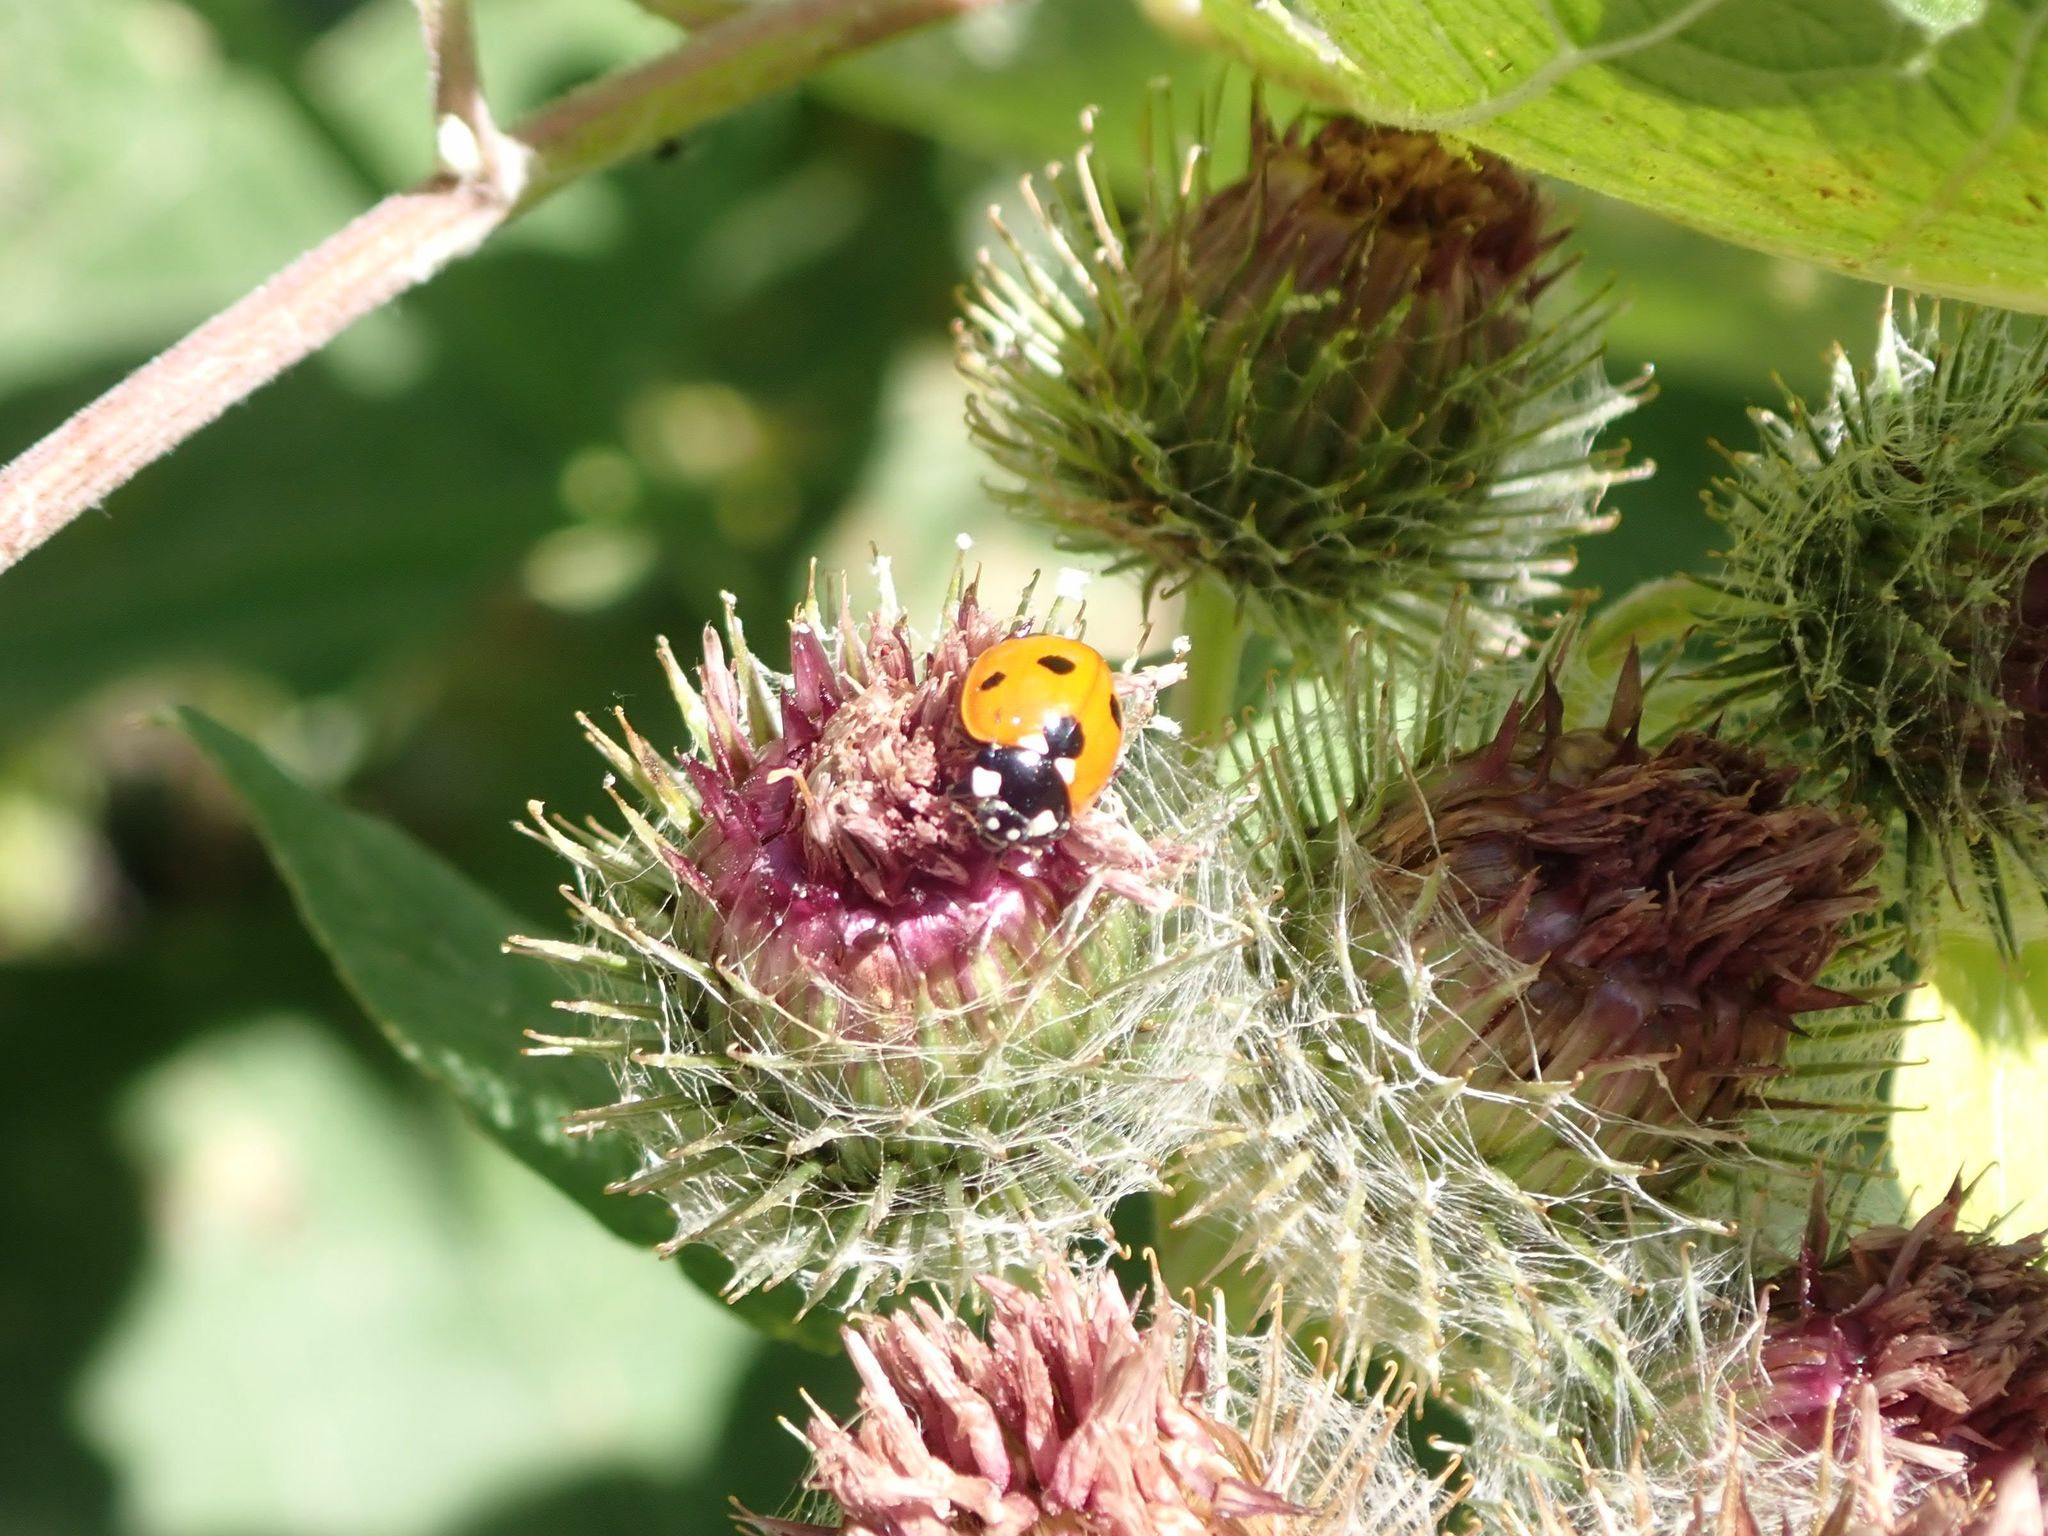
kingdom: Animalia
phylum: Arthropoda
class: Insecta
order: Coleoptera
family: Coccinellidae
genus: Coccinella
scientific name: Coccinella septempunctata
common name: Sevenspotted lady beetle
